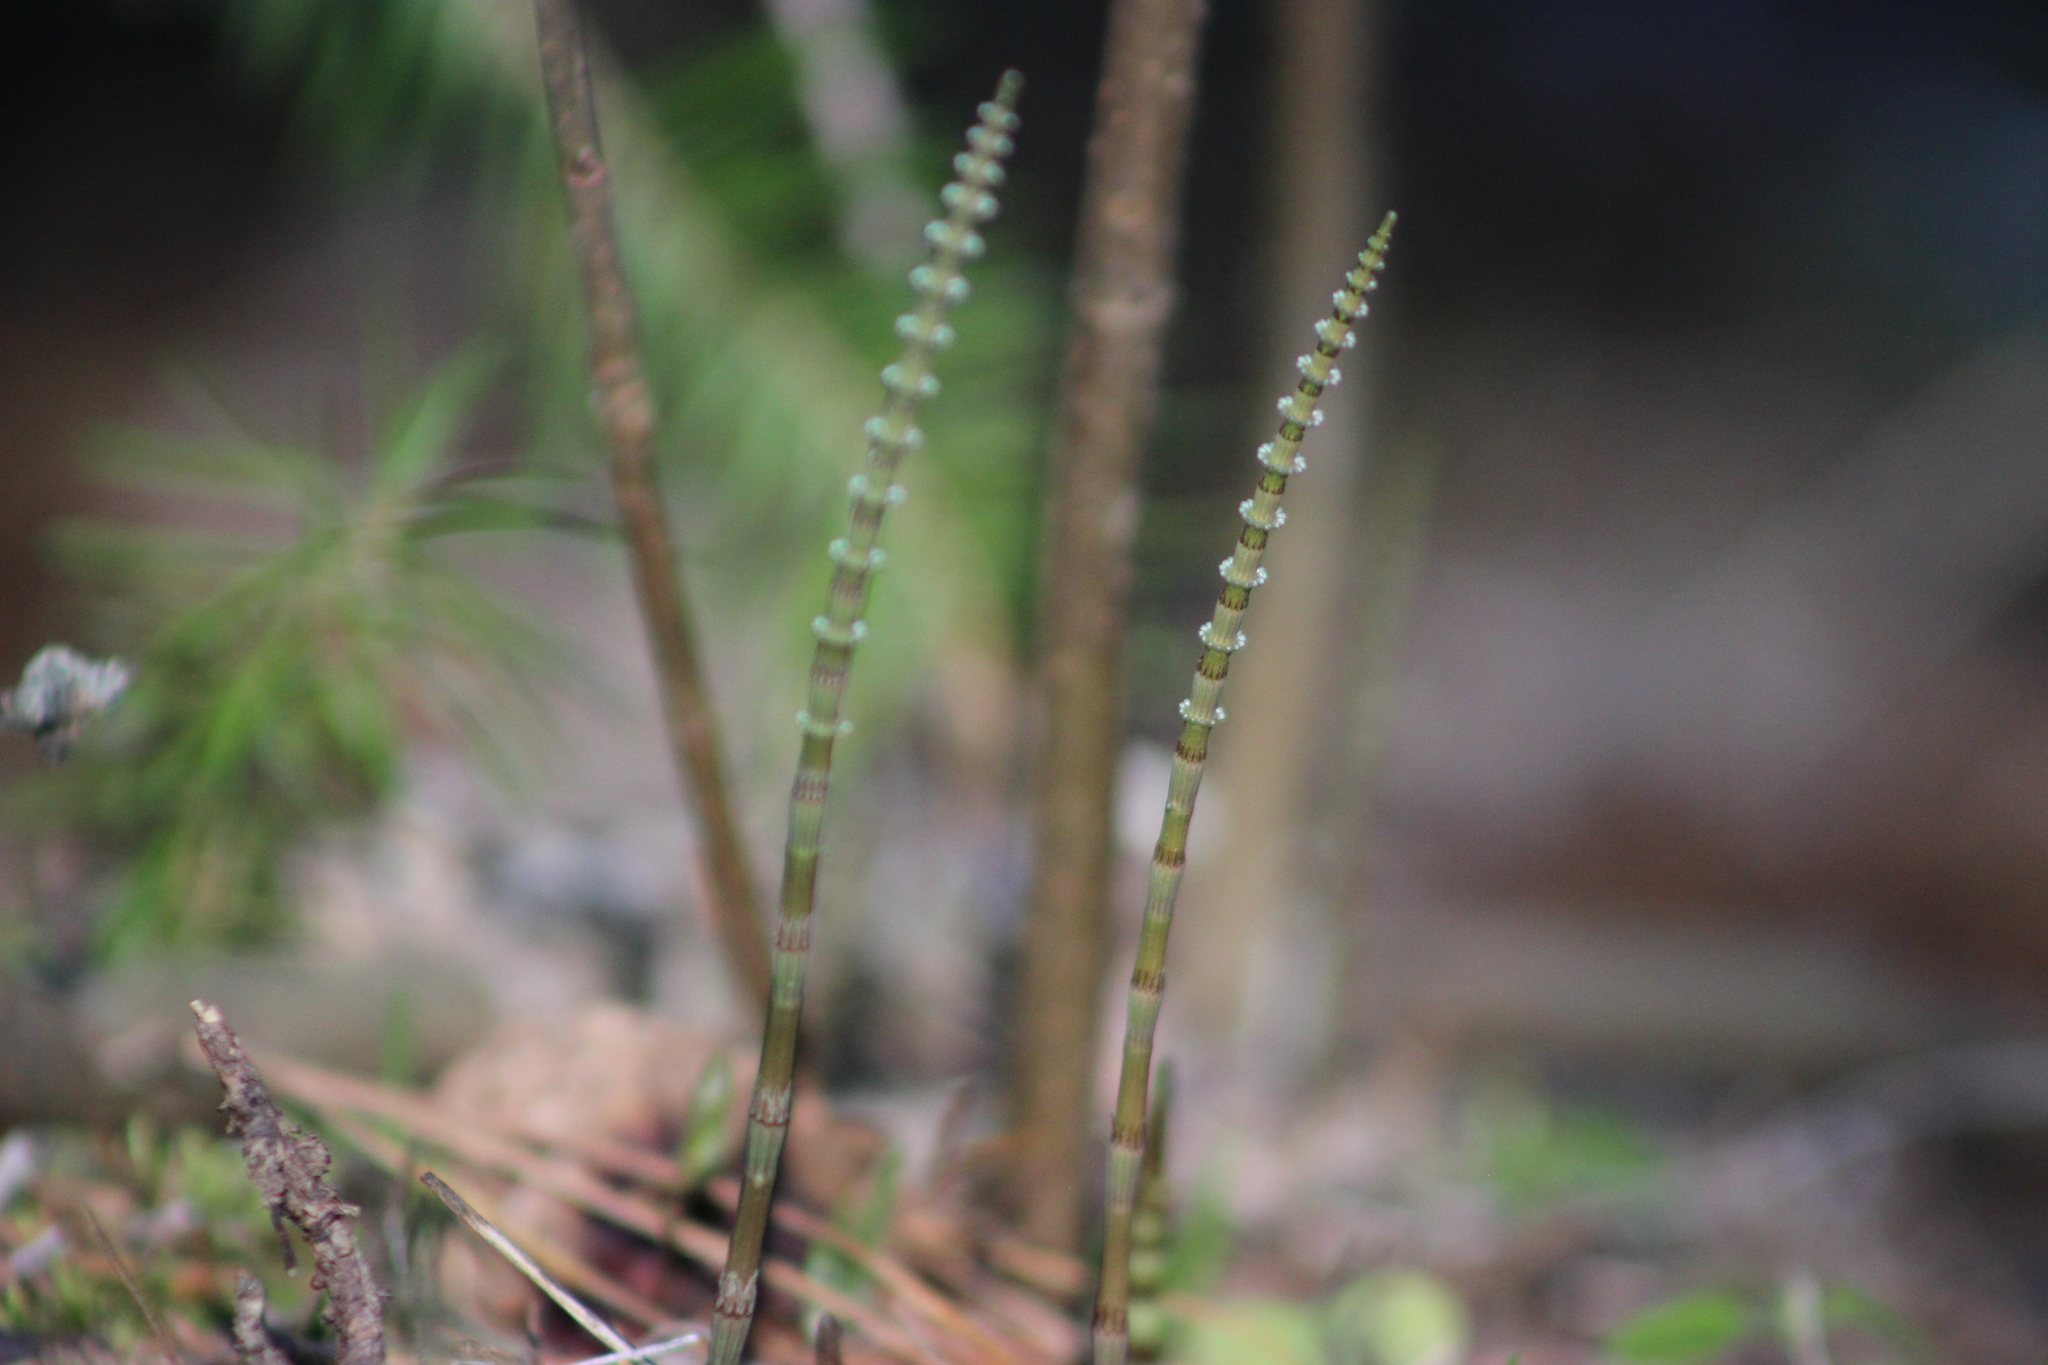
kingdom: Plantae
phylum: Tracheophyta
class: Polypodiopsida
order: Equisetales
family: Equisetaceae
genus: Equisetum
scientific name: Equisetum pratense
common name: Meadow horsetail
